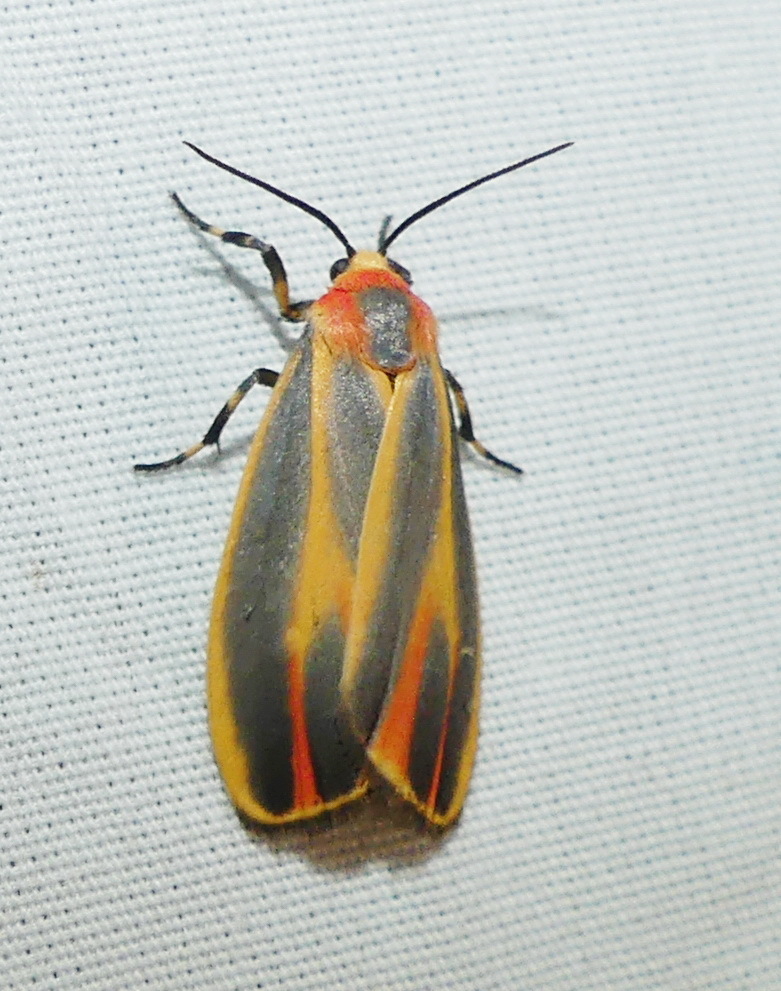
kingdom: Animalia
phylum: Arthropoda
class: Insecta
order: Lepidoptera
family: Erebidae
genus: Hypoprepia
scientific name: Hypoprepia fucosa
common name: Painted lichen moth
